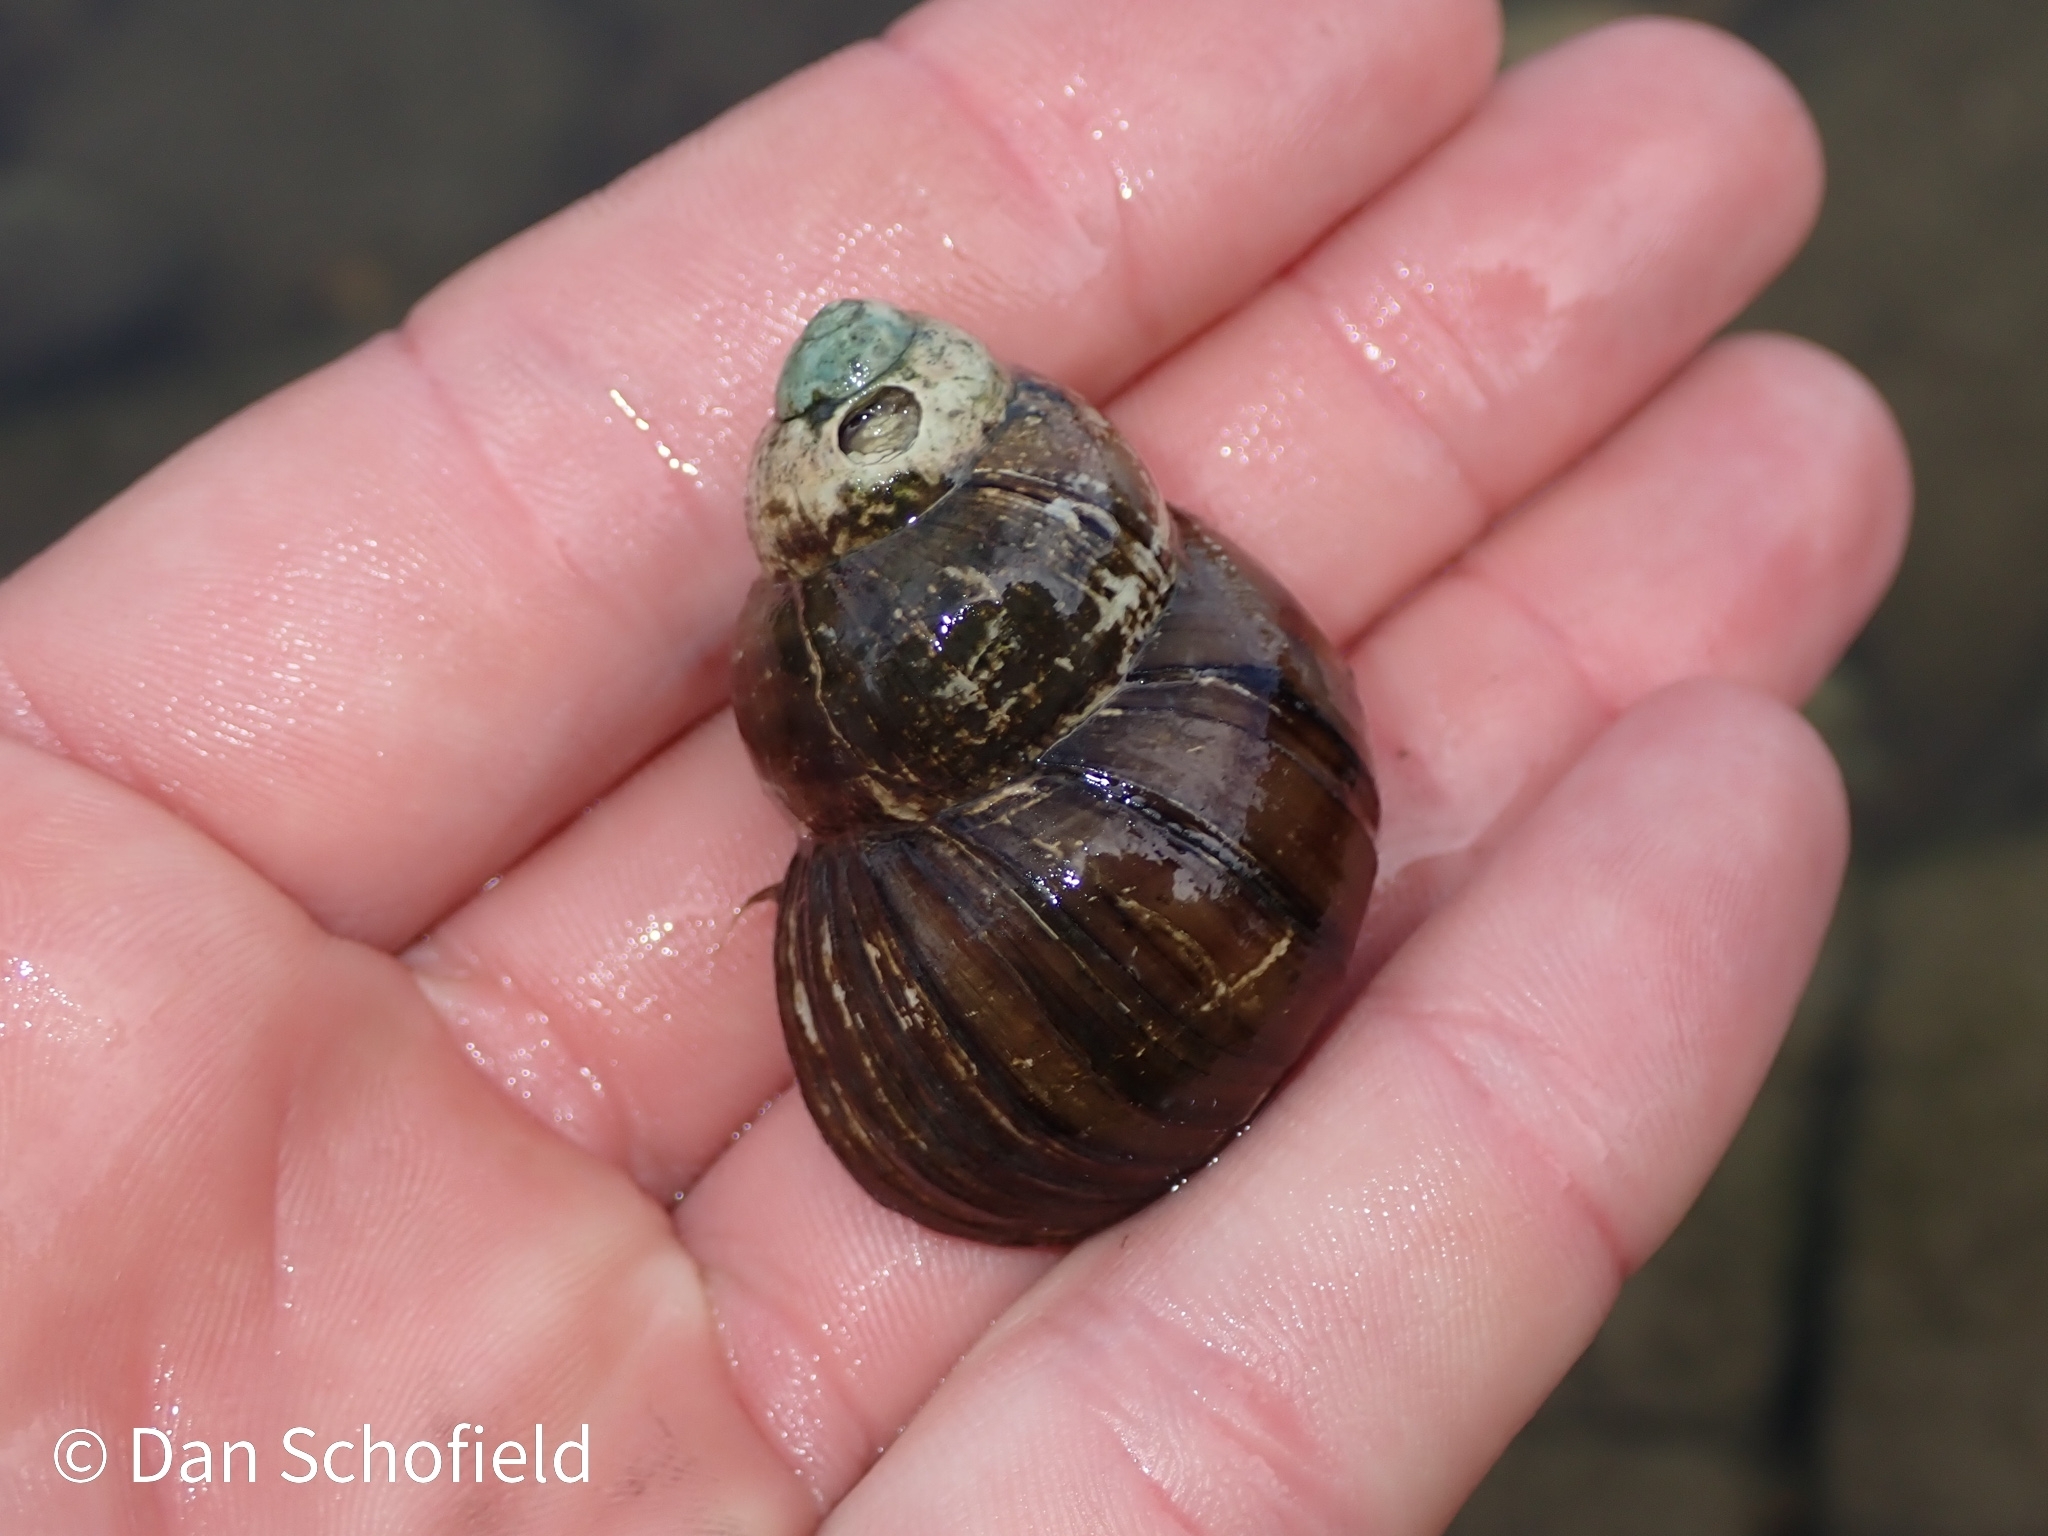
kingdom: Animalia
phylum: Mollusca
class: Gastropoda
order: Architaenioglossa
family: Viviparidae
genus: Viviparus
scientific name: Viviparus acerosus
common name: Danube river snail
